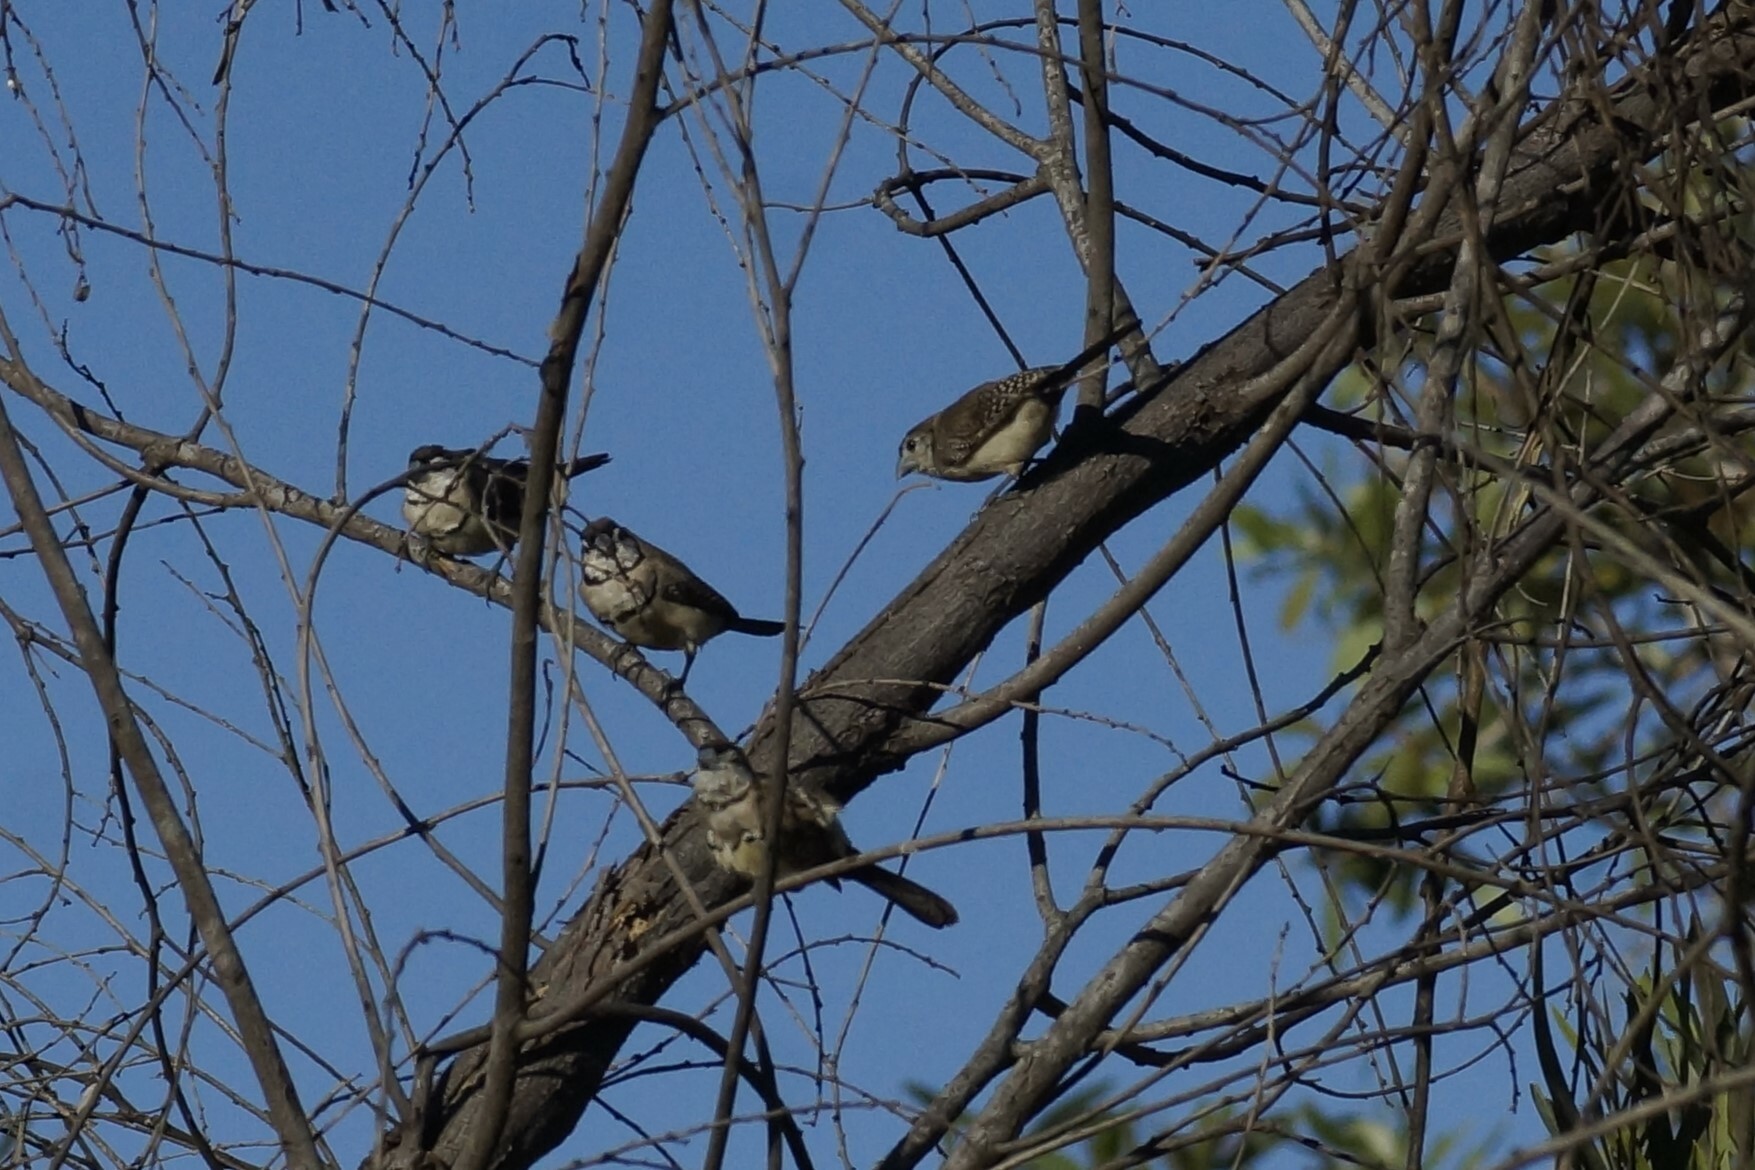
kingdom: Animalia
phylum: Chordata
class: Aves
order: Passeriformes
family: Estrildidae
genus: Taeniopygia
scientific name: Taeniopygia bichenovii
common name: Double-barred finch
